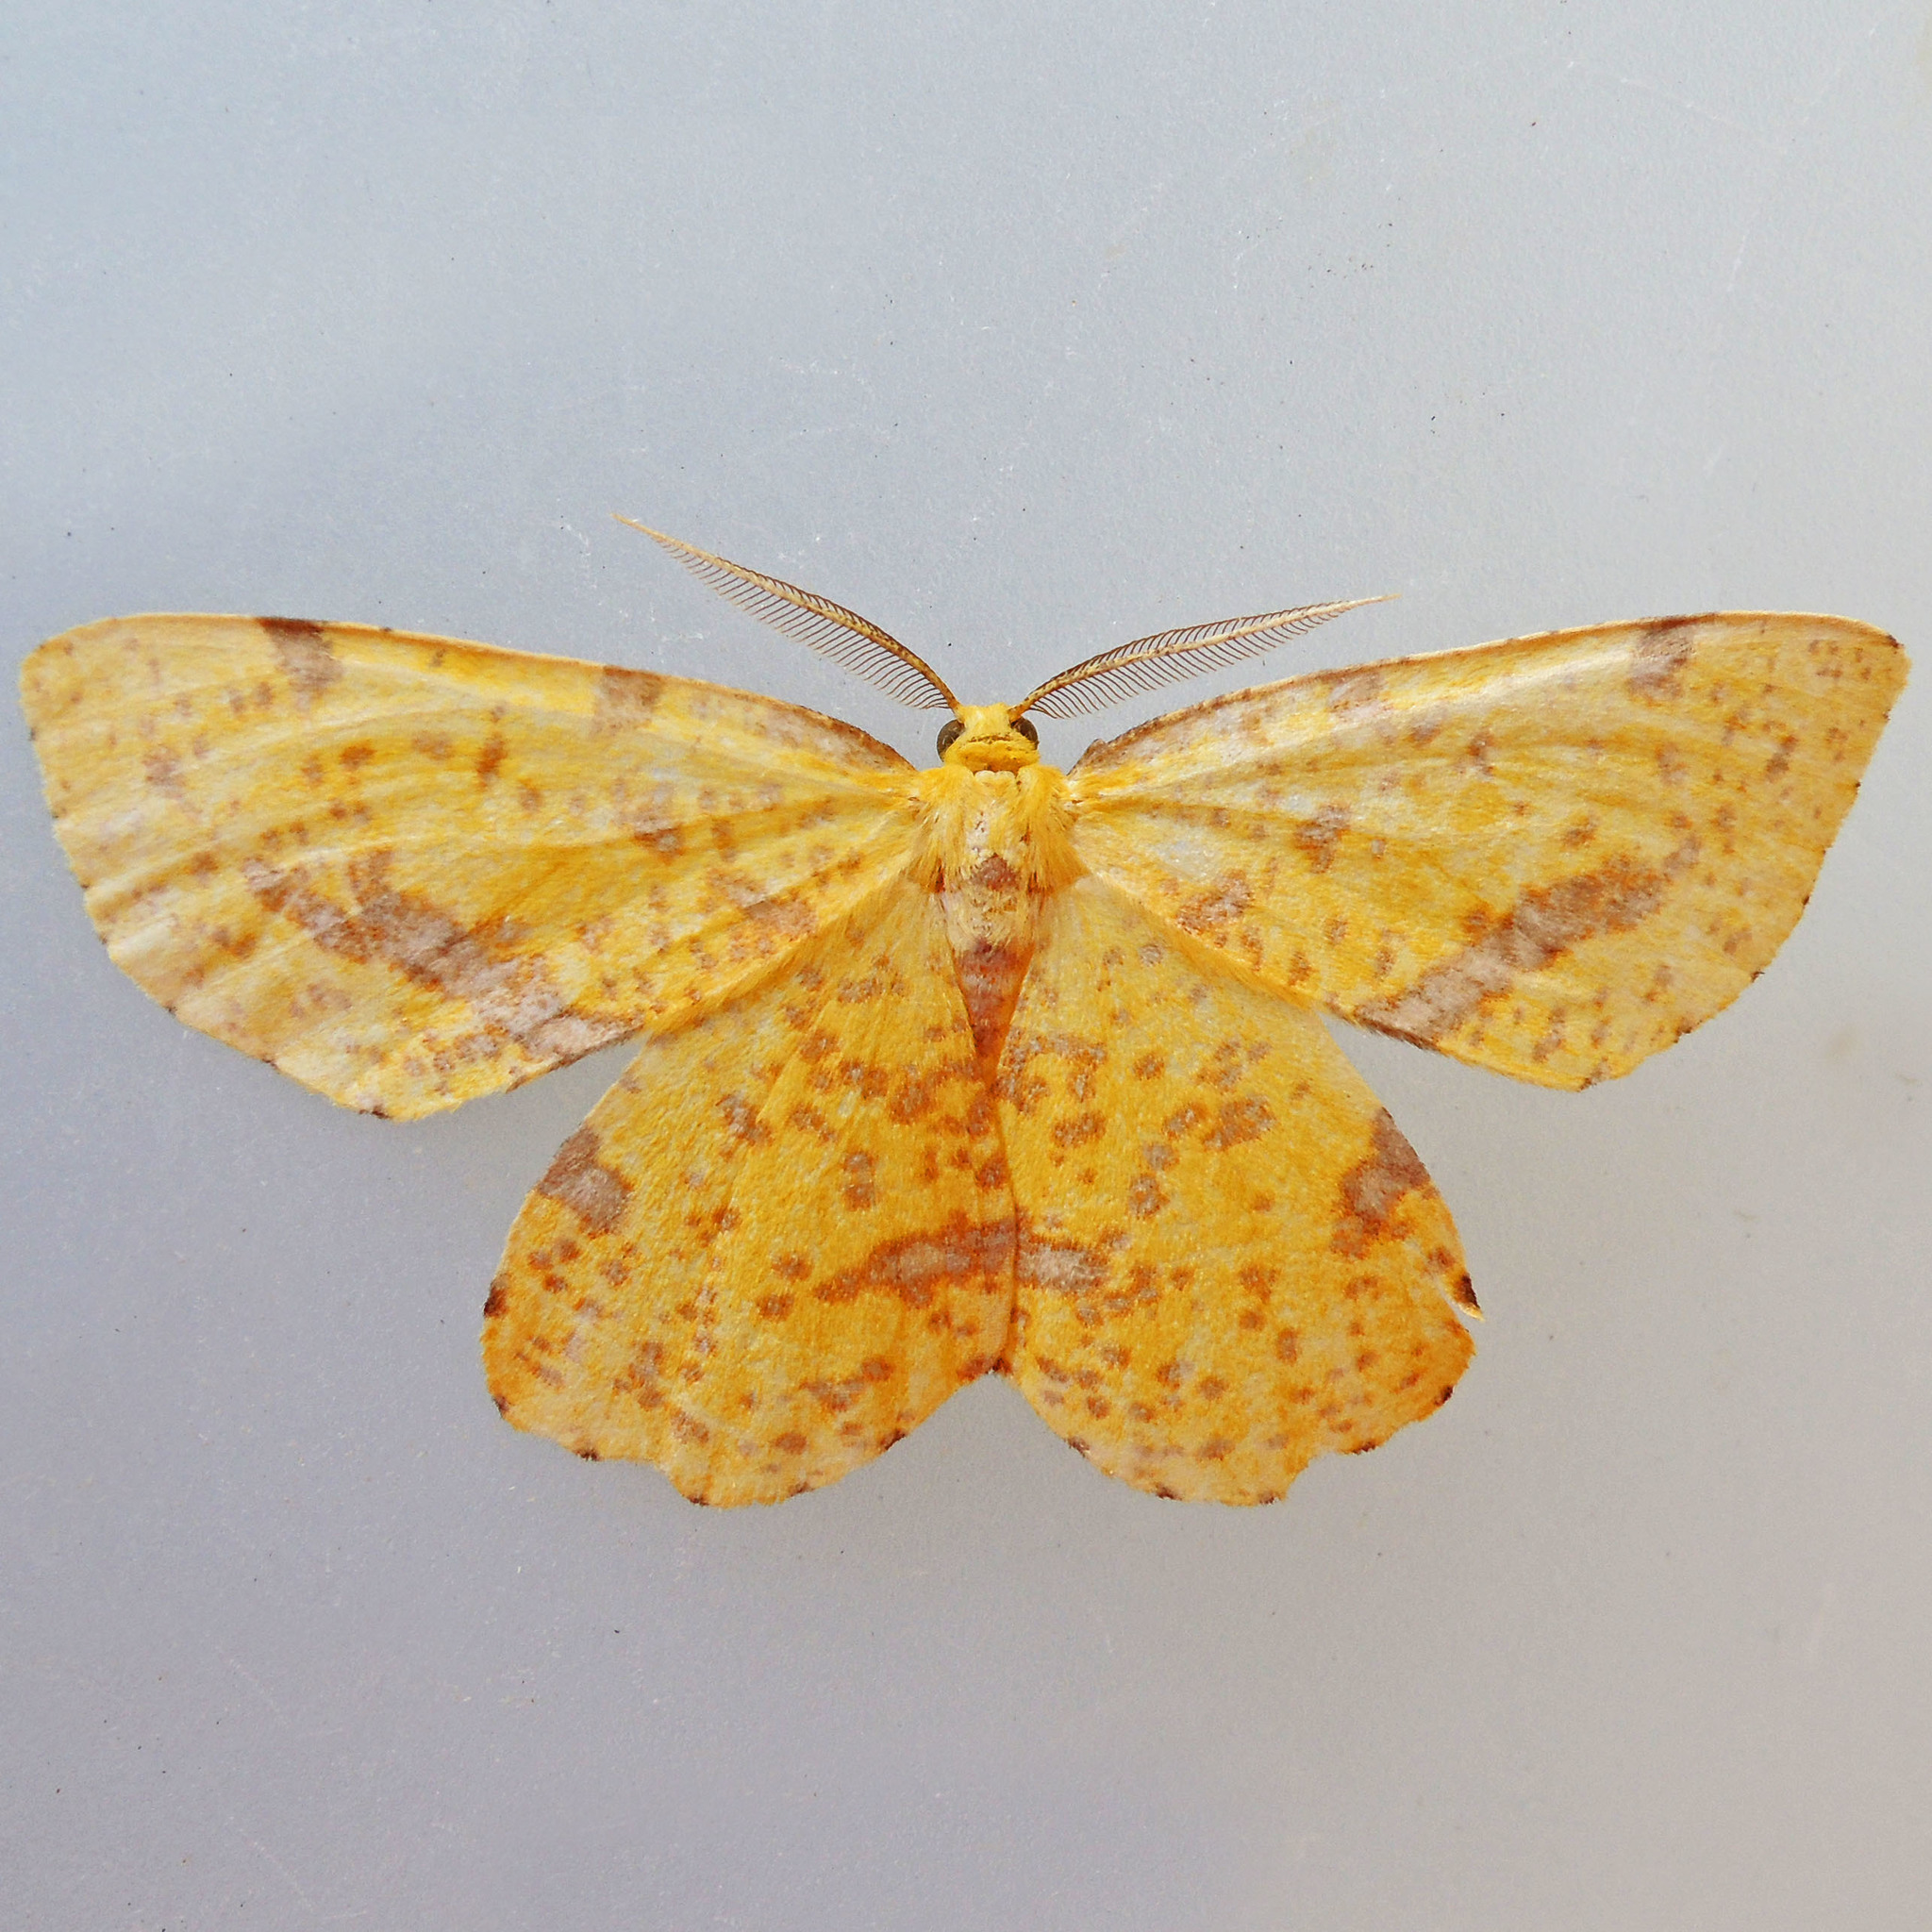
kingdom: Animalia
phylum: Arthropoda
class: Insecta
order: Lepidoptera
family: Geometridae
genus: Xanthotype
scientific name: Xanthotype
